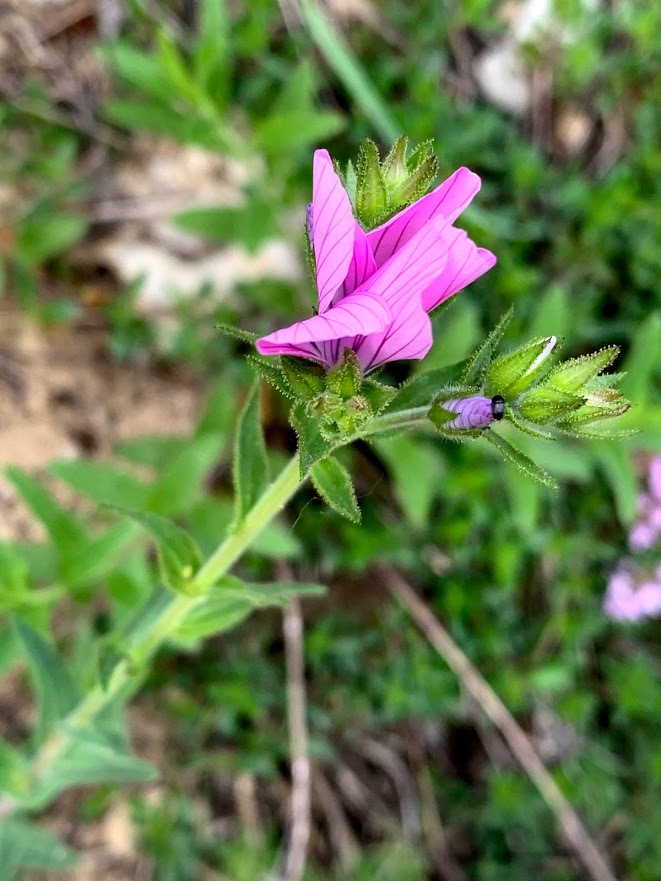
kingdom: Plantae
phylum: Tracheophyta
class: Magnoliopsida
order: Malpighiales
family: Linaceae
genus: Linum
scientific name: Linum viscosum
